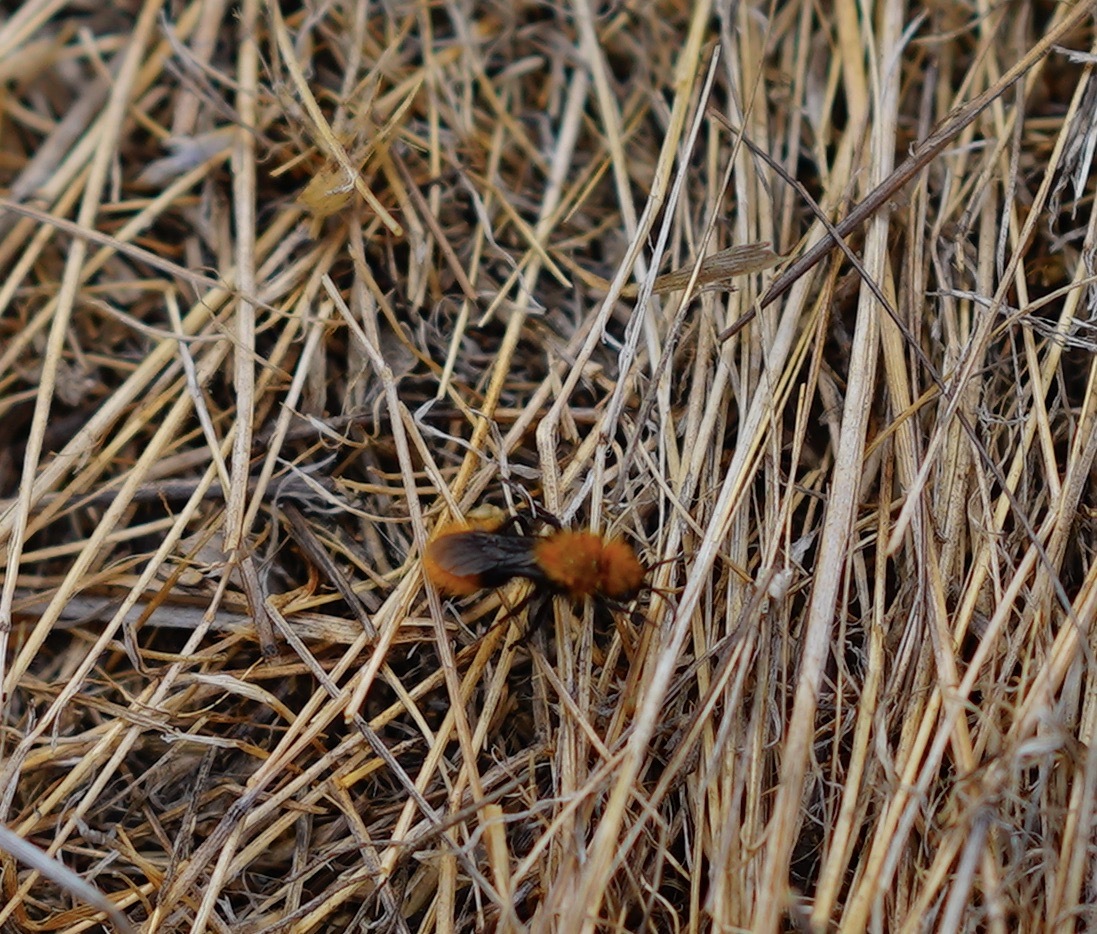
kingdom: Animalia
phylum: Arthropoda
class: Insecta
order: Hymenoptera
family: Mutillidae
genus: Dasymutilla
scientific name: Dasymutilla
